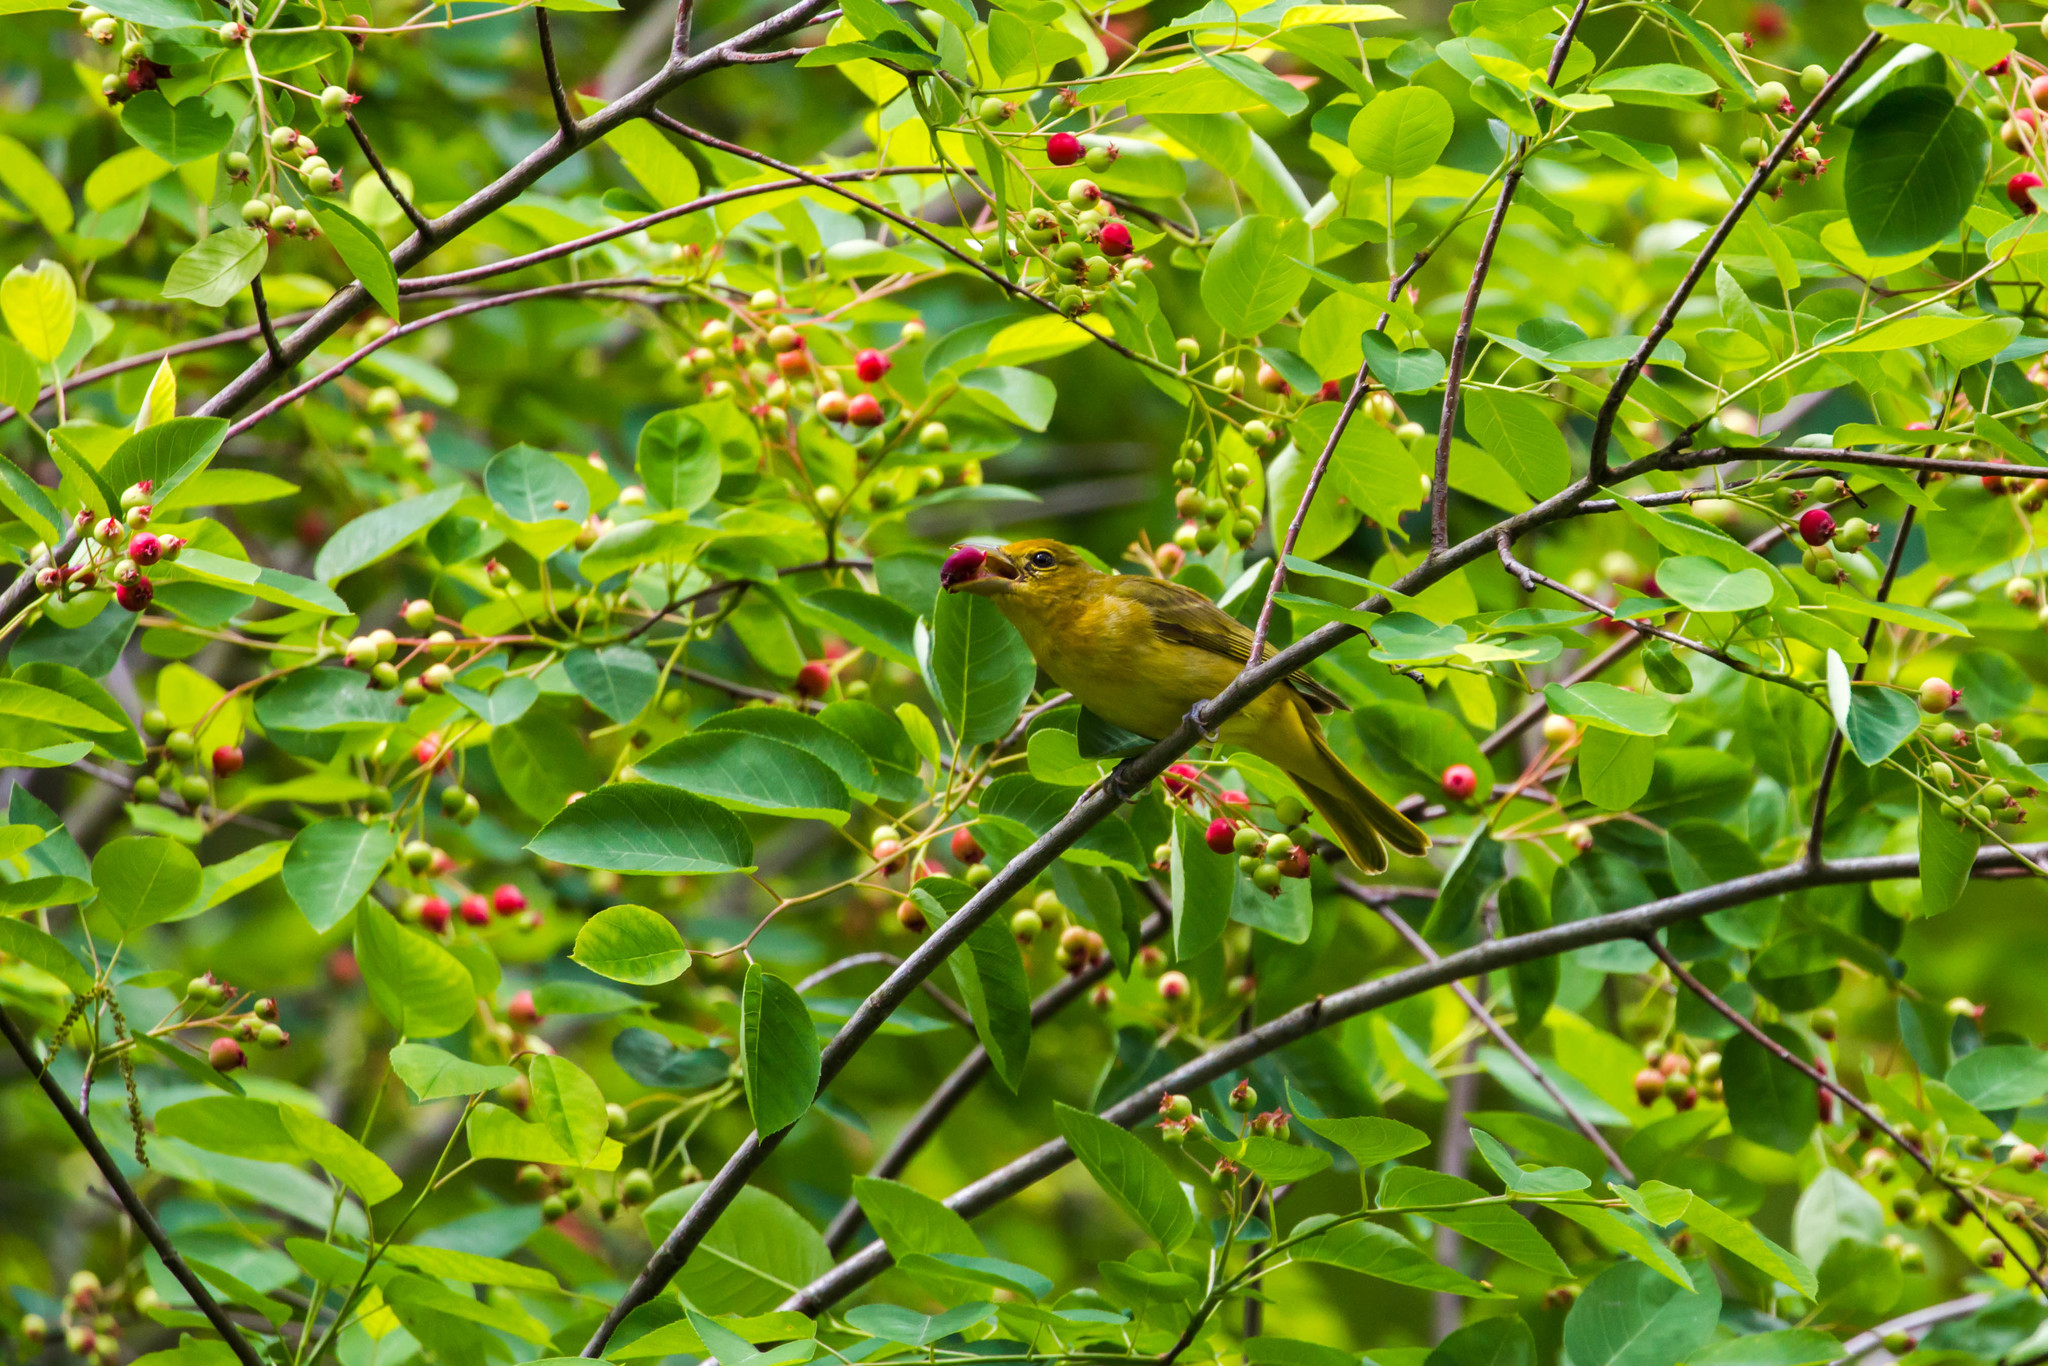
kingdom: Animalia
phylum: Chordata
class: Aves
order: Passeriformes
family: Cardinalidae
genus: Piranga
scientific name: Piranga rubra
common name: Summer tanager
